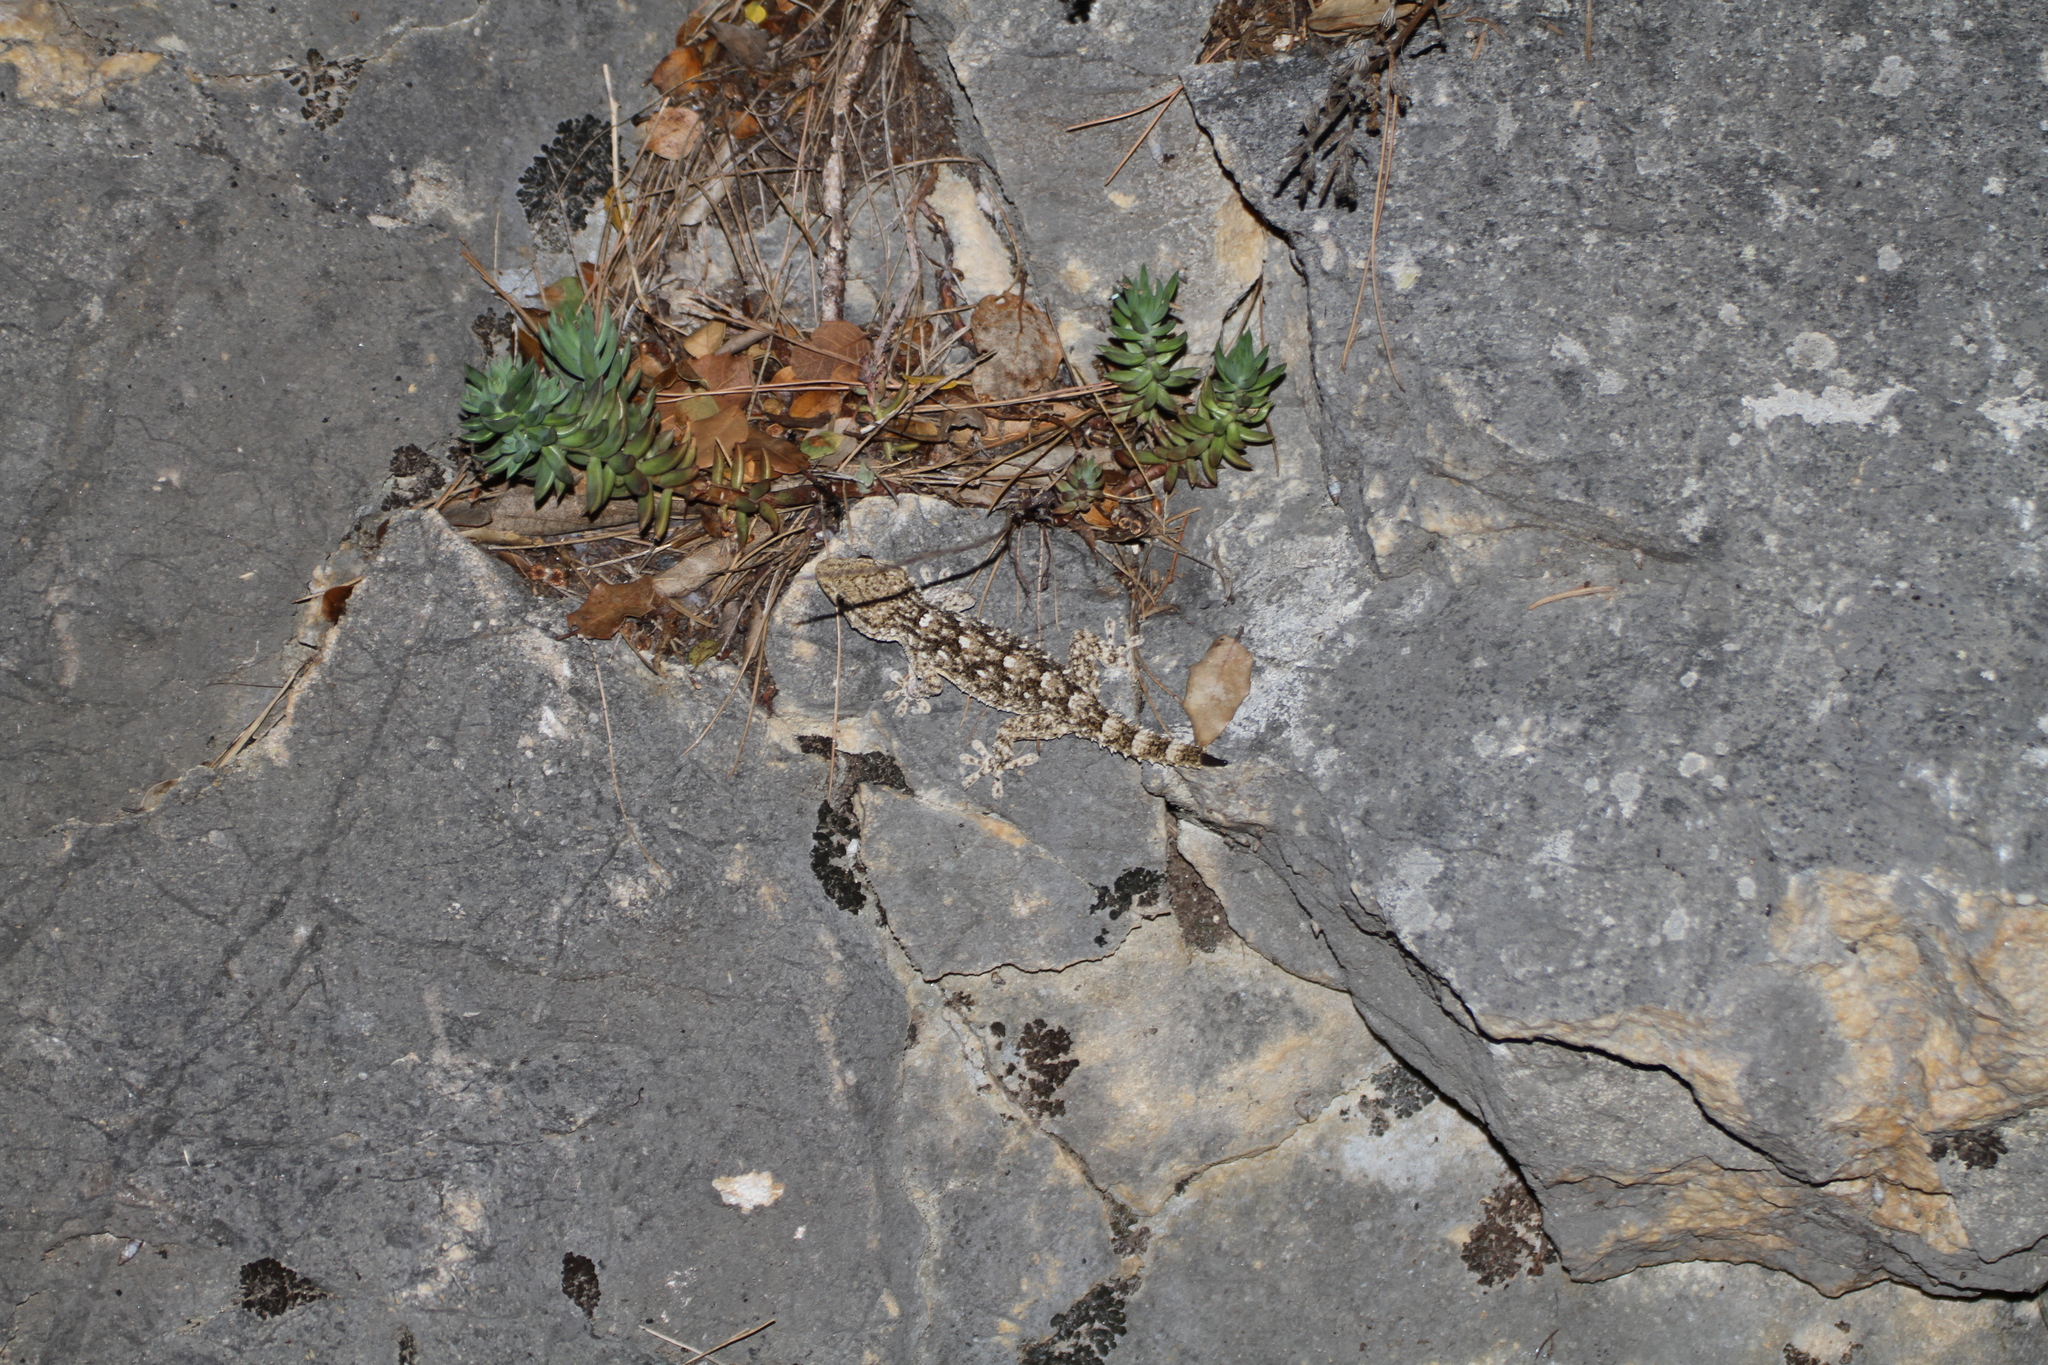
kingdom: Animalia
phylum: Chordata
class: Squamata
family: Phyllodactylidae
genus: Tarentola
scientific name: Tarentola mauritanica
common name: Moorish gecko
